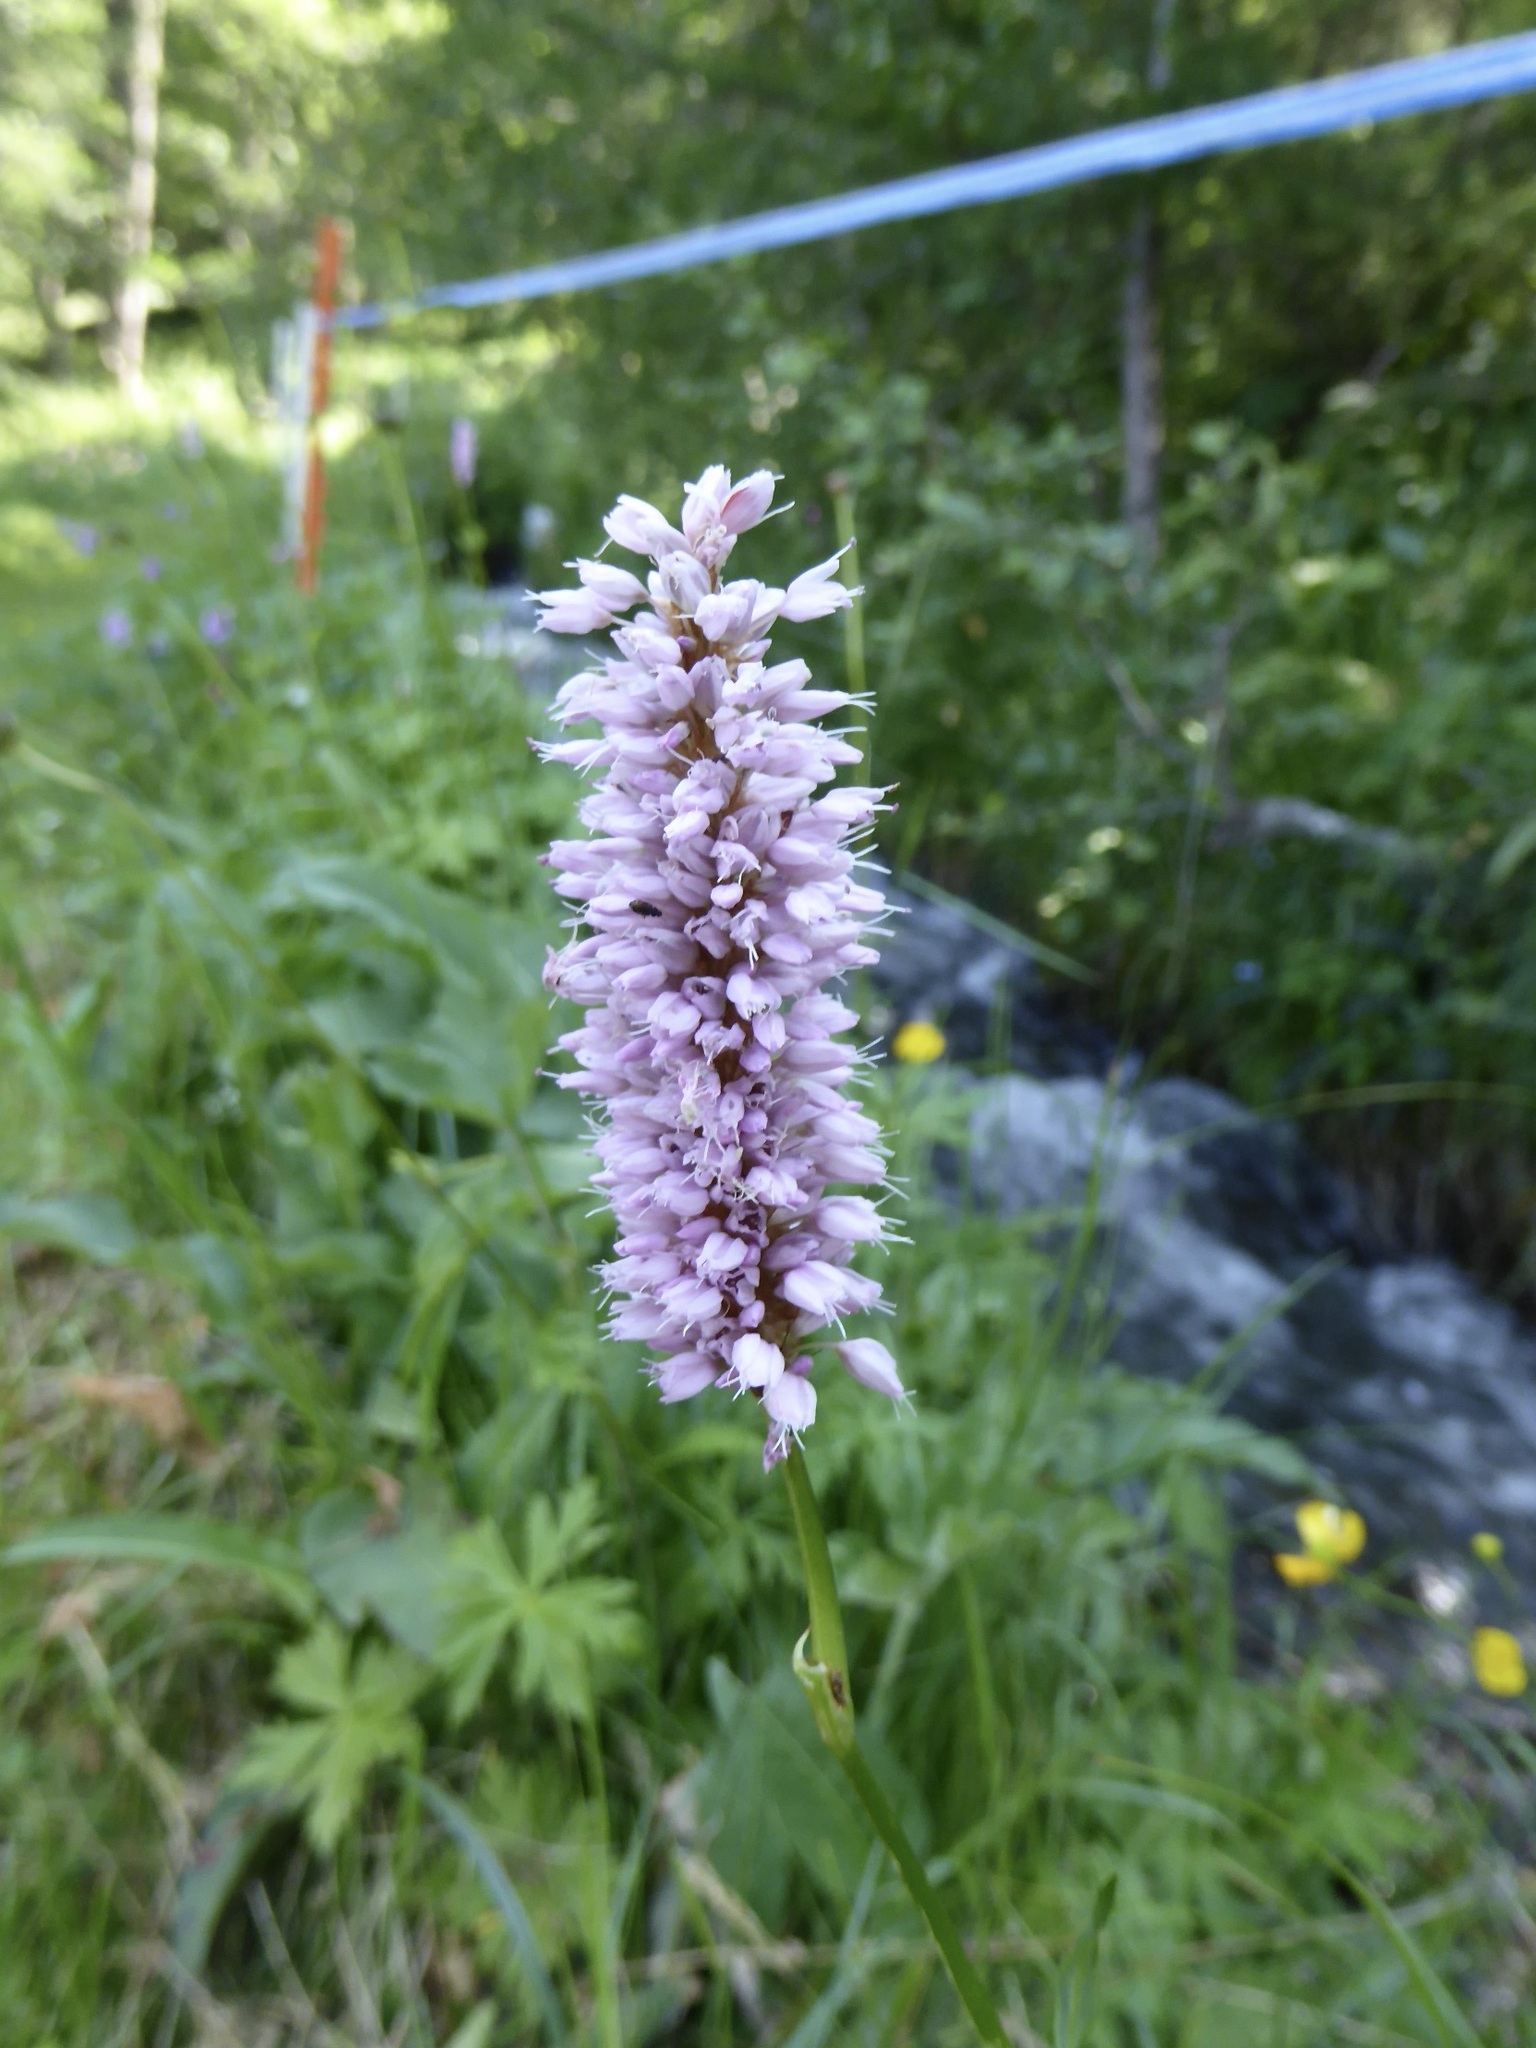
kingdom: Plantae
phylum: Tracheophyta
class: Magnoliopsida
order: Caryophyllales
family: Polygonaceae
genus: Bistorta
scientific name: Bistorta officinalis
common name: Common bistort
